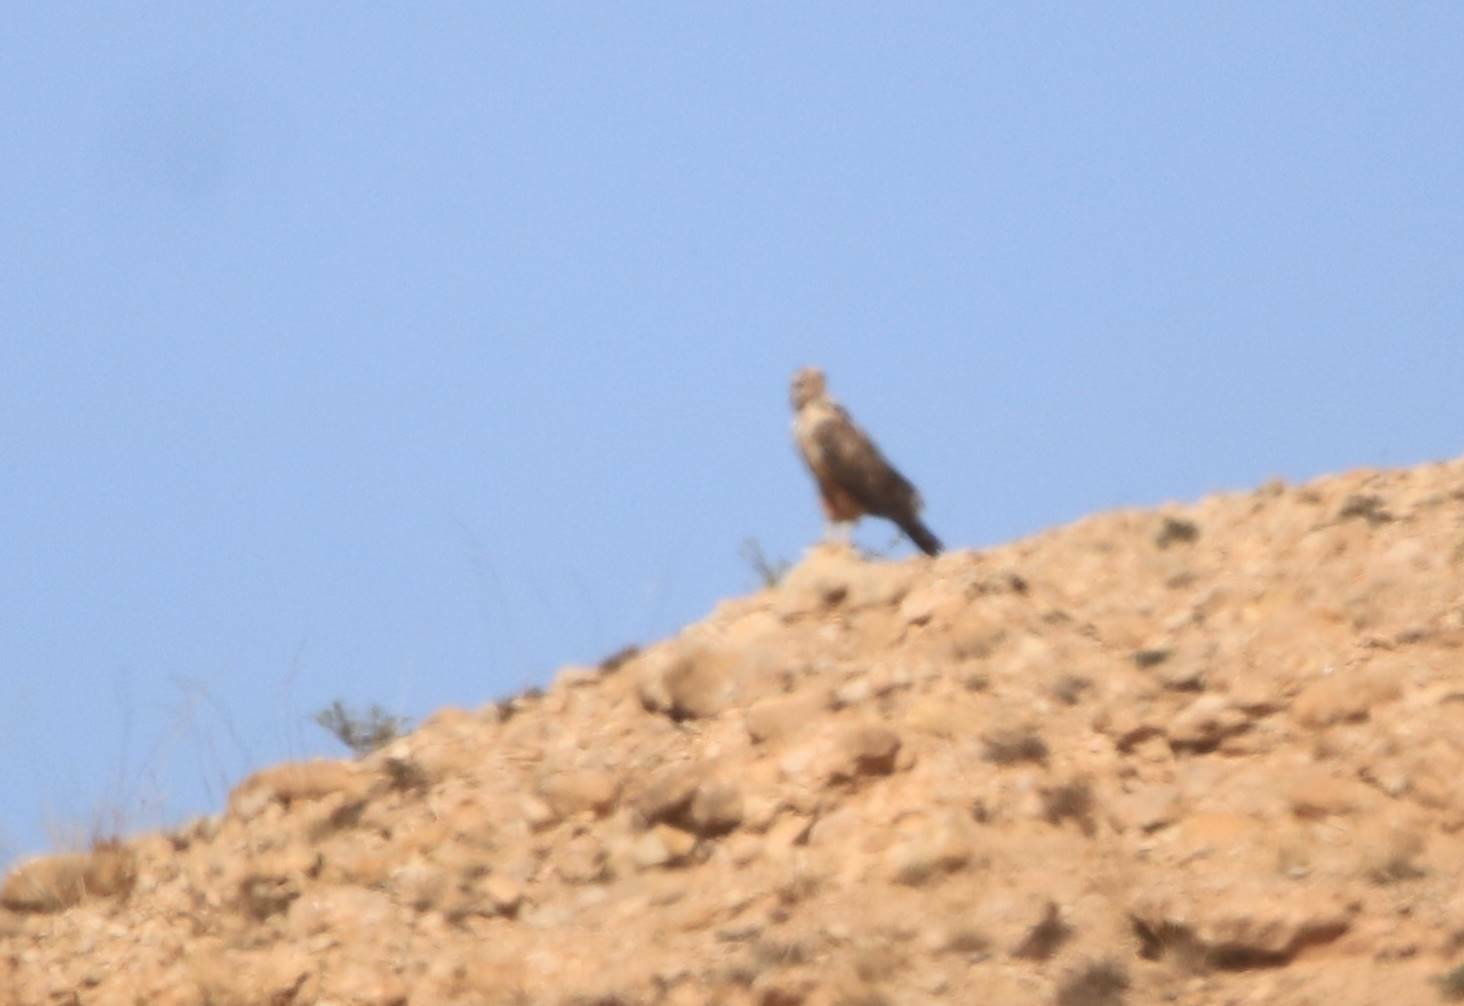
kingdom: Animalia
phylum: Chordata
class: Aves
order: Accipitriformes
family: Accipitridae
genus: Buteo
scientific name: Buteo rufinus
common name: Long-legged buzzard
